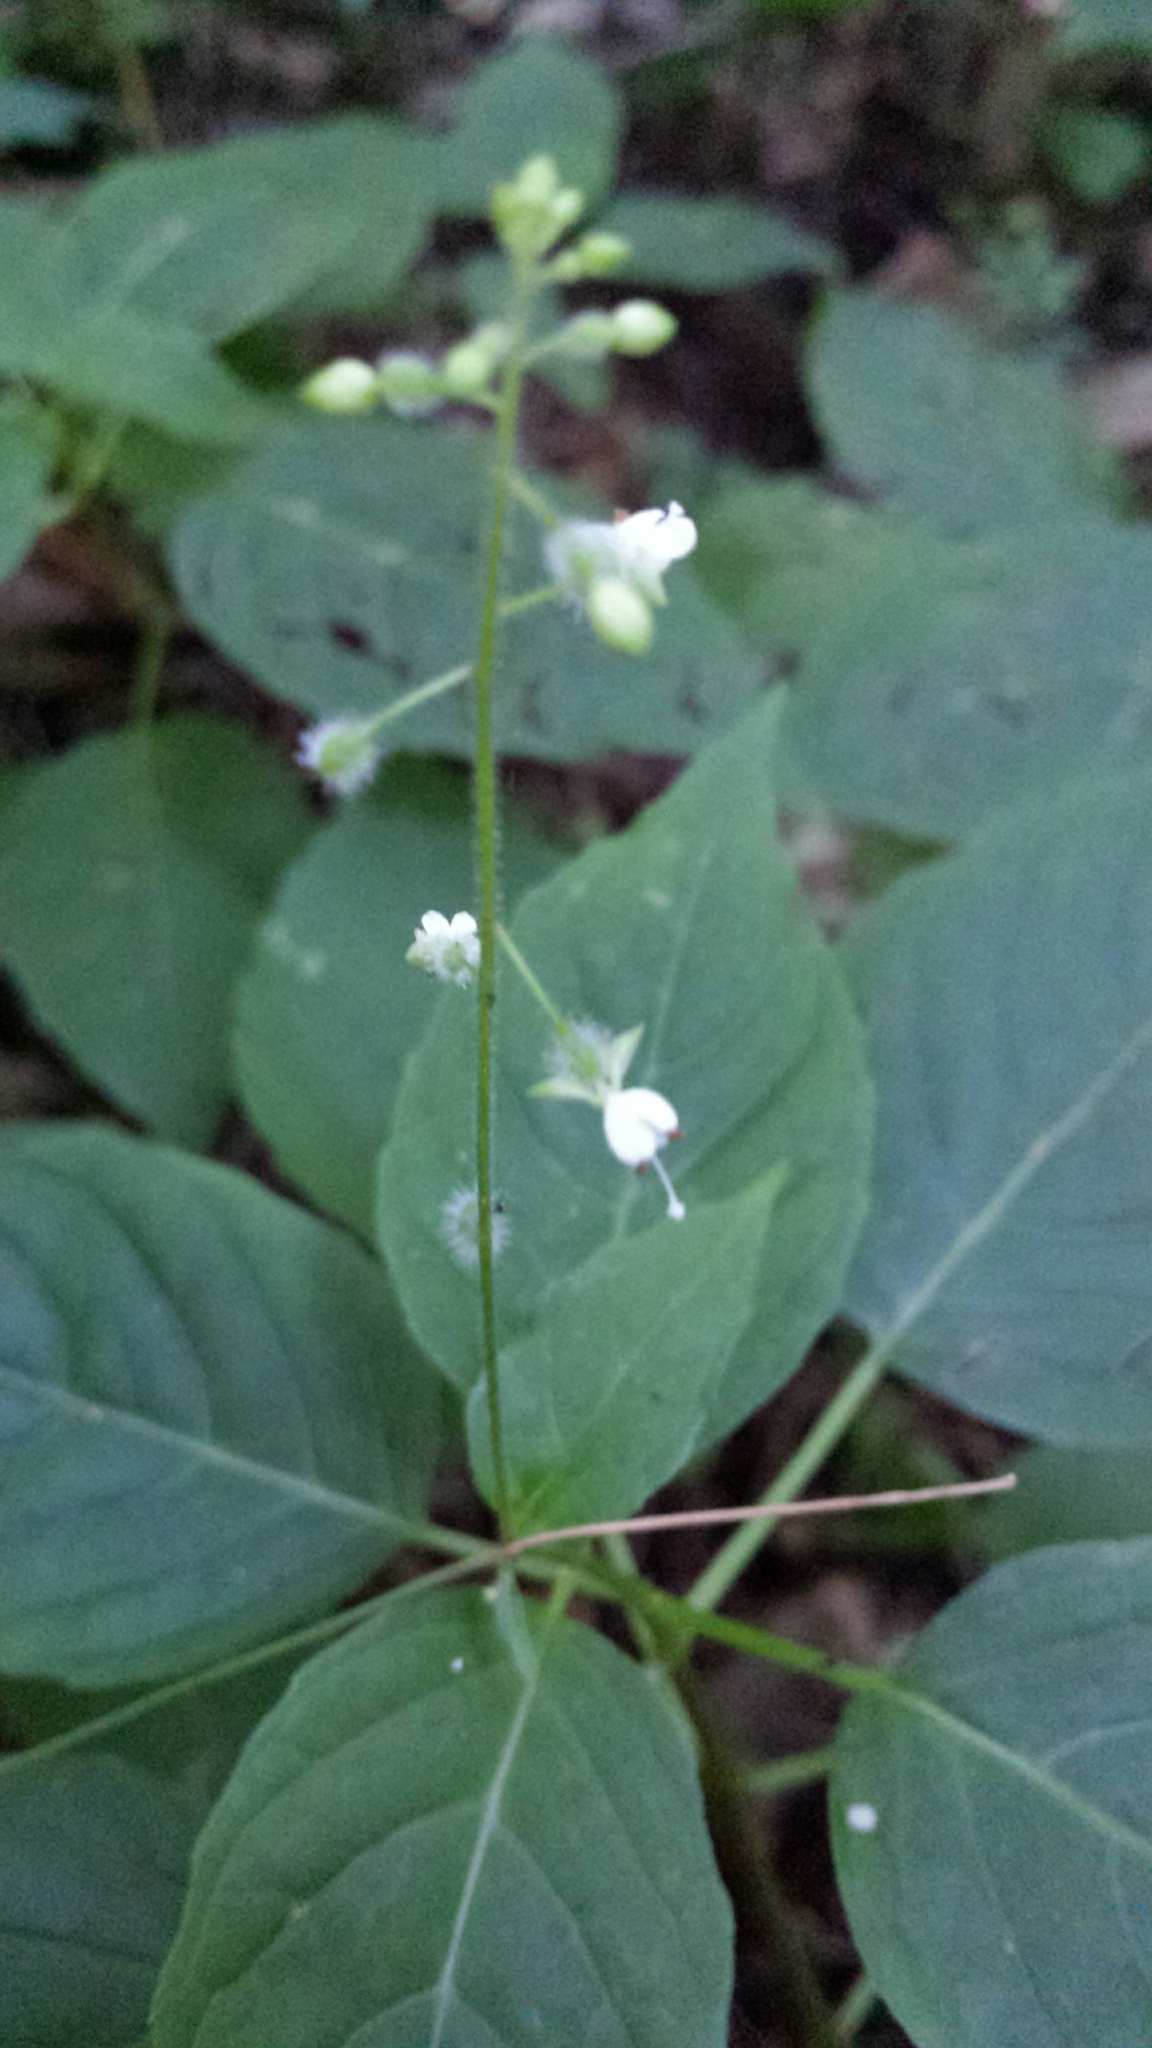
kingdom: Plantae
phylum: Tracheophyta
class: Magnoliopsida
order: Myrtales
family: Onagraceae
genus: Circaea
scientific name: Circaea canadensis
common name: Broad-leaved enchanter's nightshade
